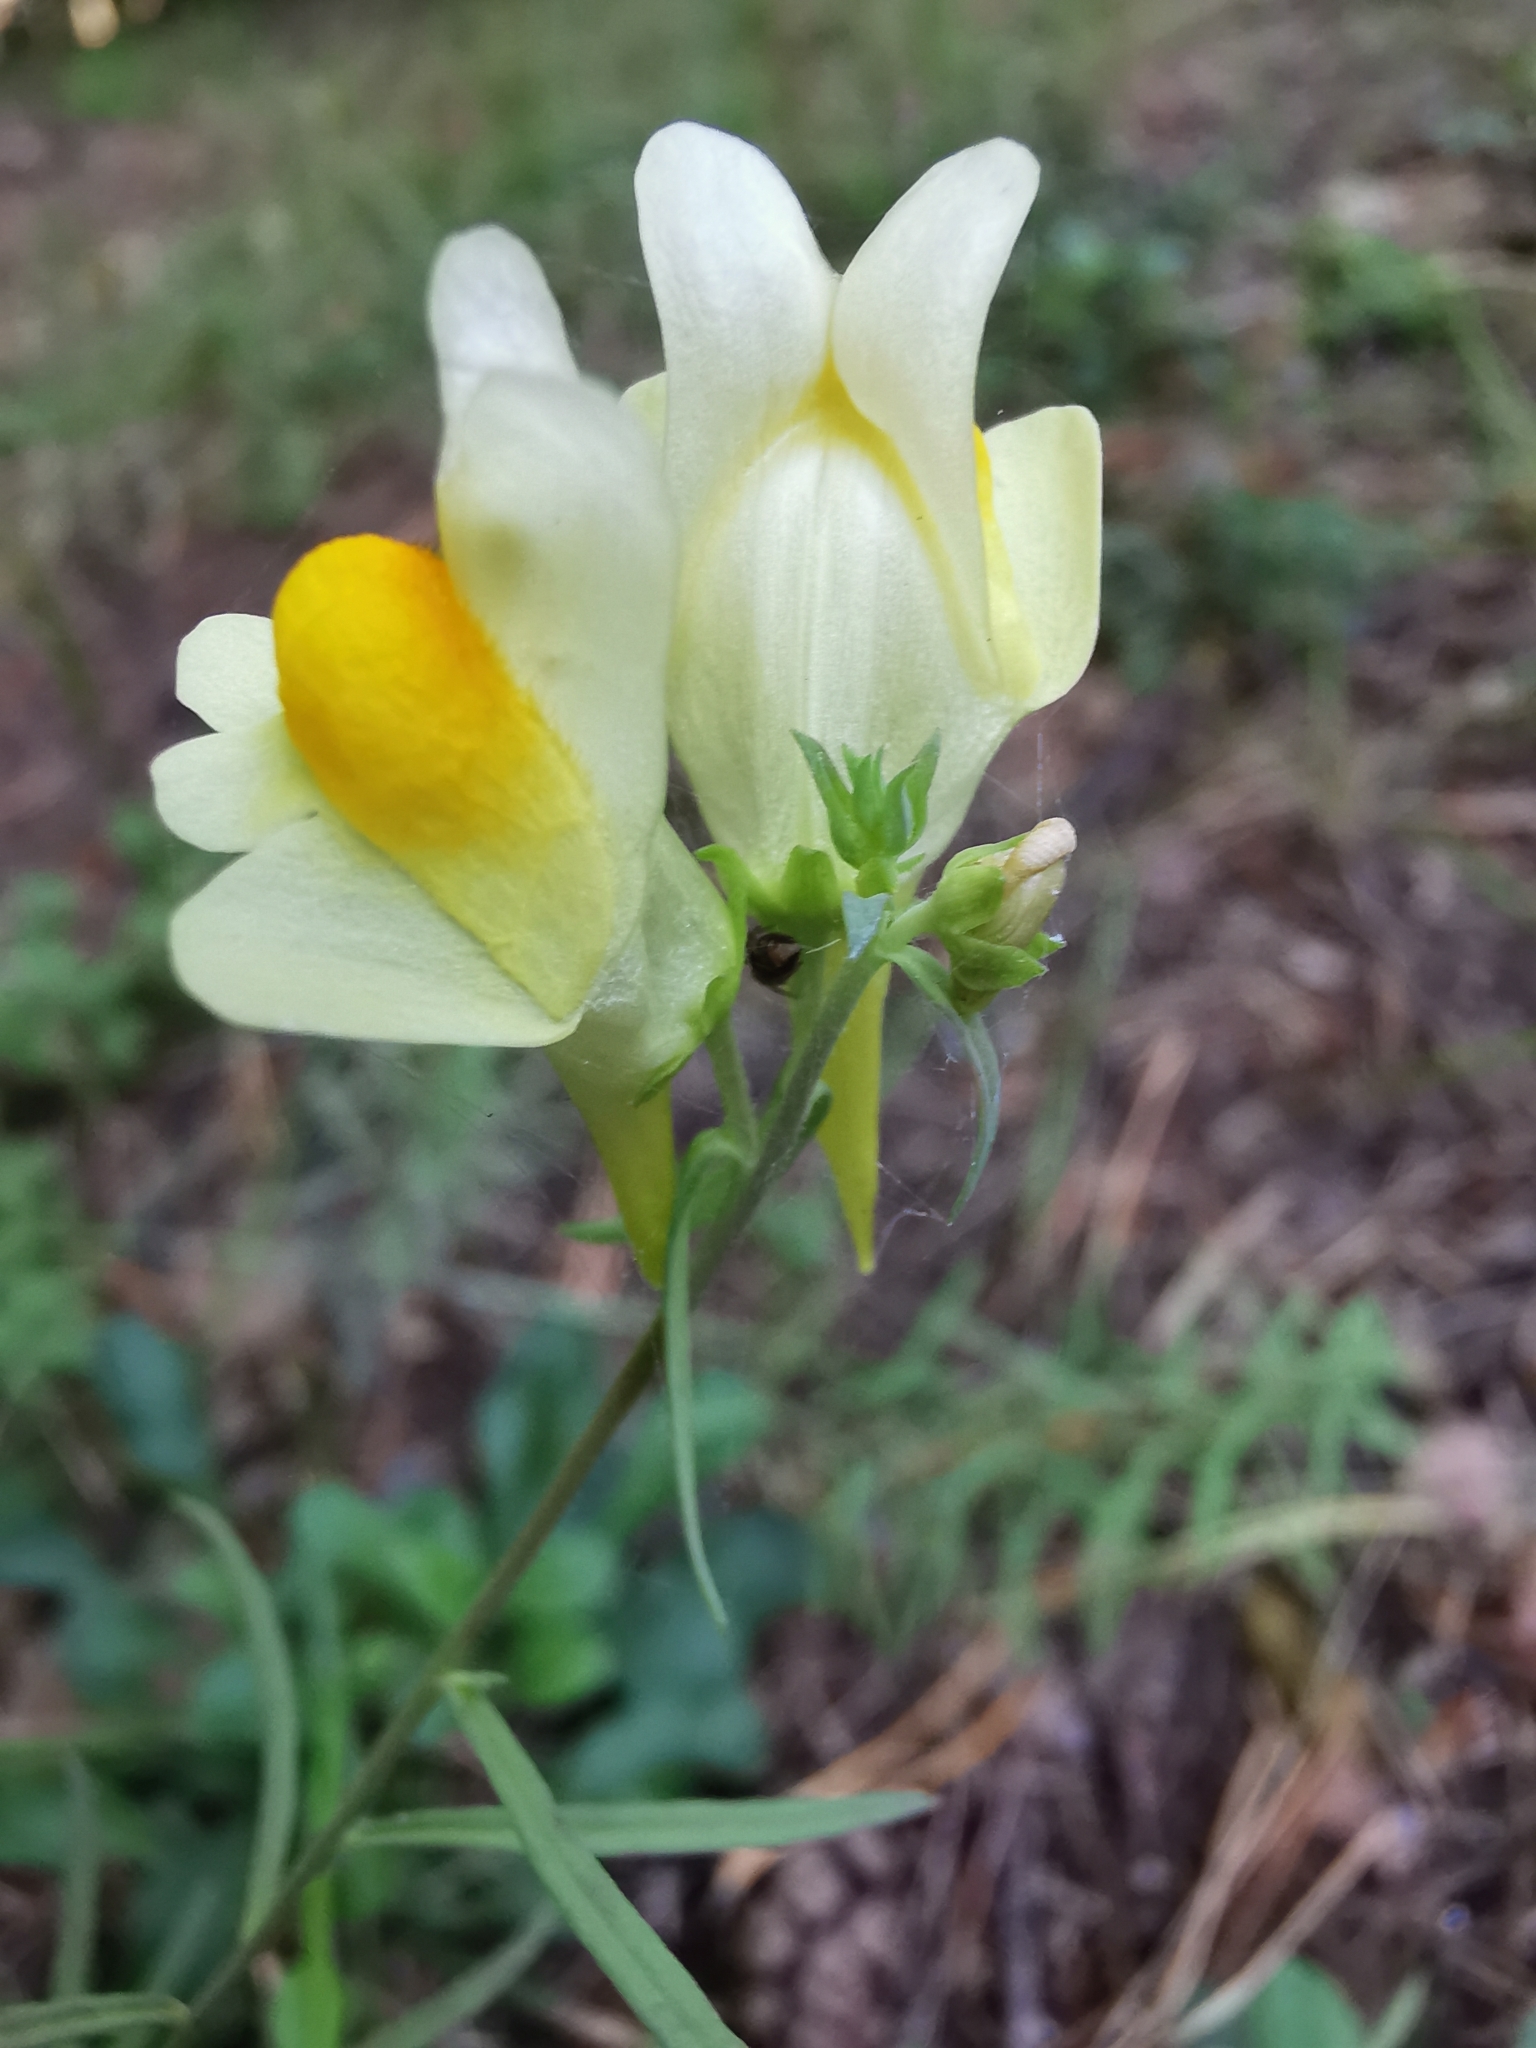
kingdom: Plantae
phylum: Tracheophyta
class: Magnoliopsida
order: Lamiales
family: Plantaginaceae
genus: Linaria
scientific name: Linaria vulgaris
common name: Butter and eggs
